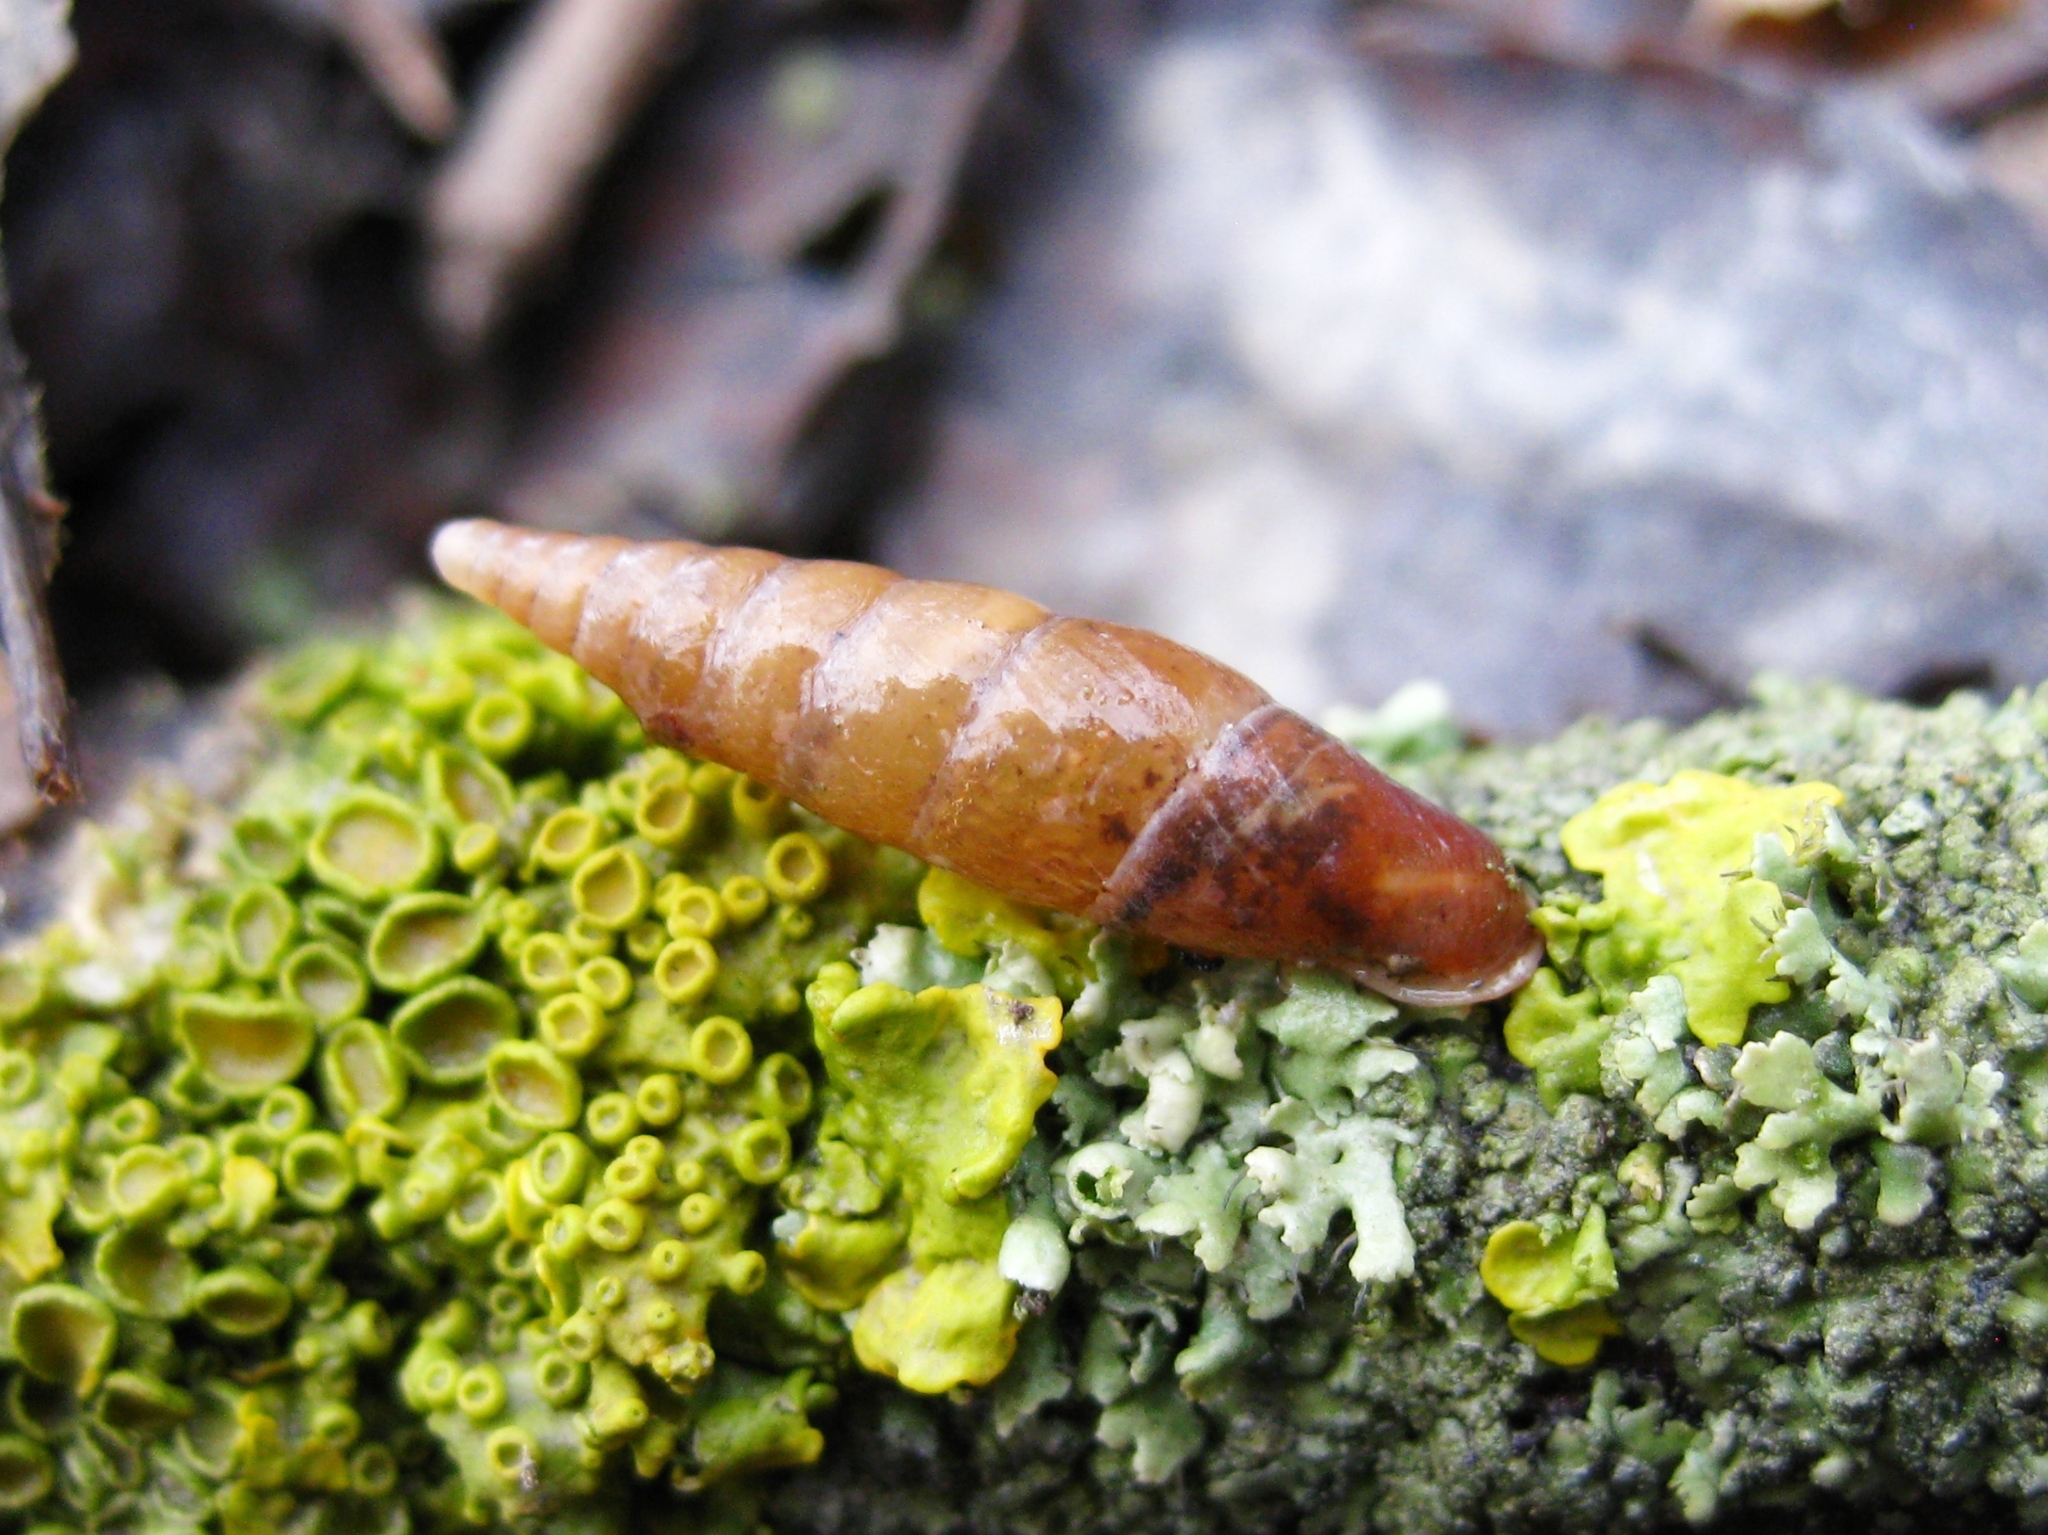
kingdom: Animalia
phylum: Mollusca
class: Gastropoda
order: Stylommatophora
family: Clausiliidae
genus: Cochlodina
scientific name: Cochlodina laminata
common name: Plaited door snail
